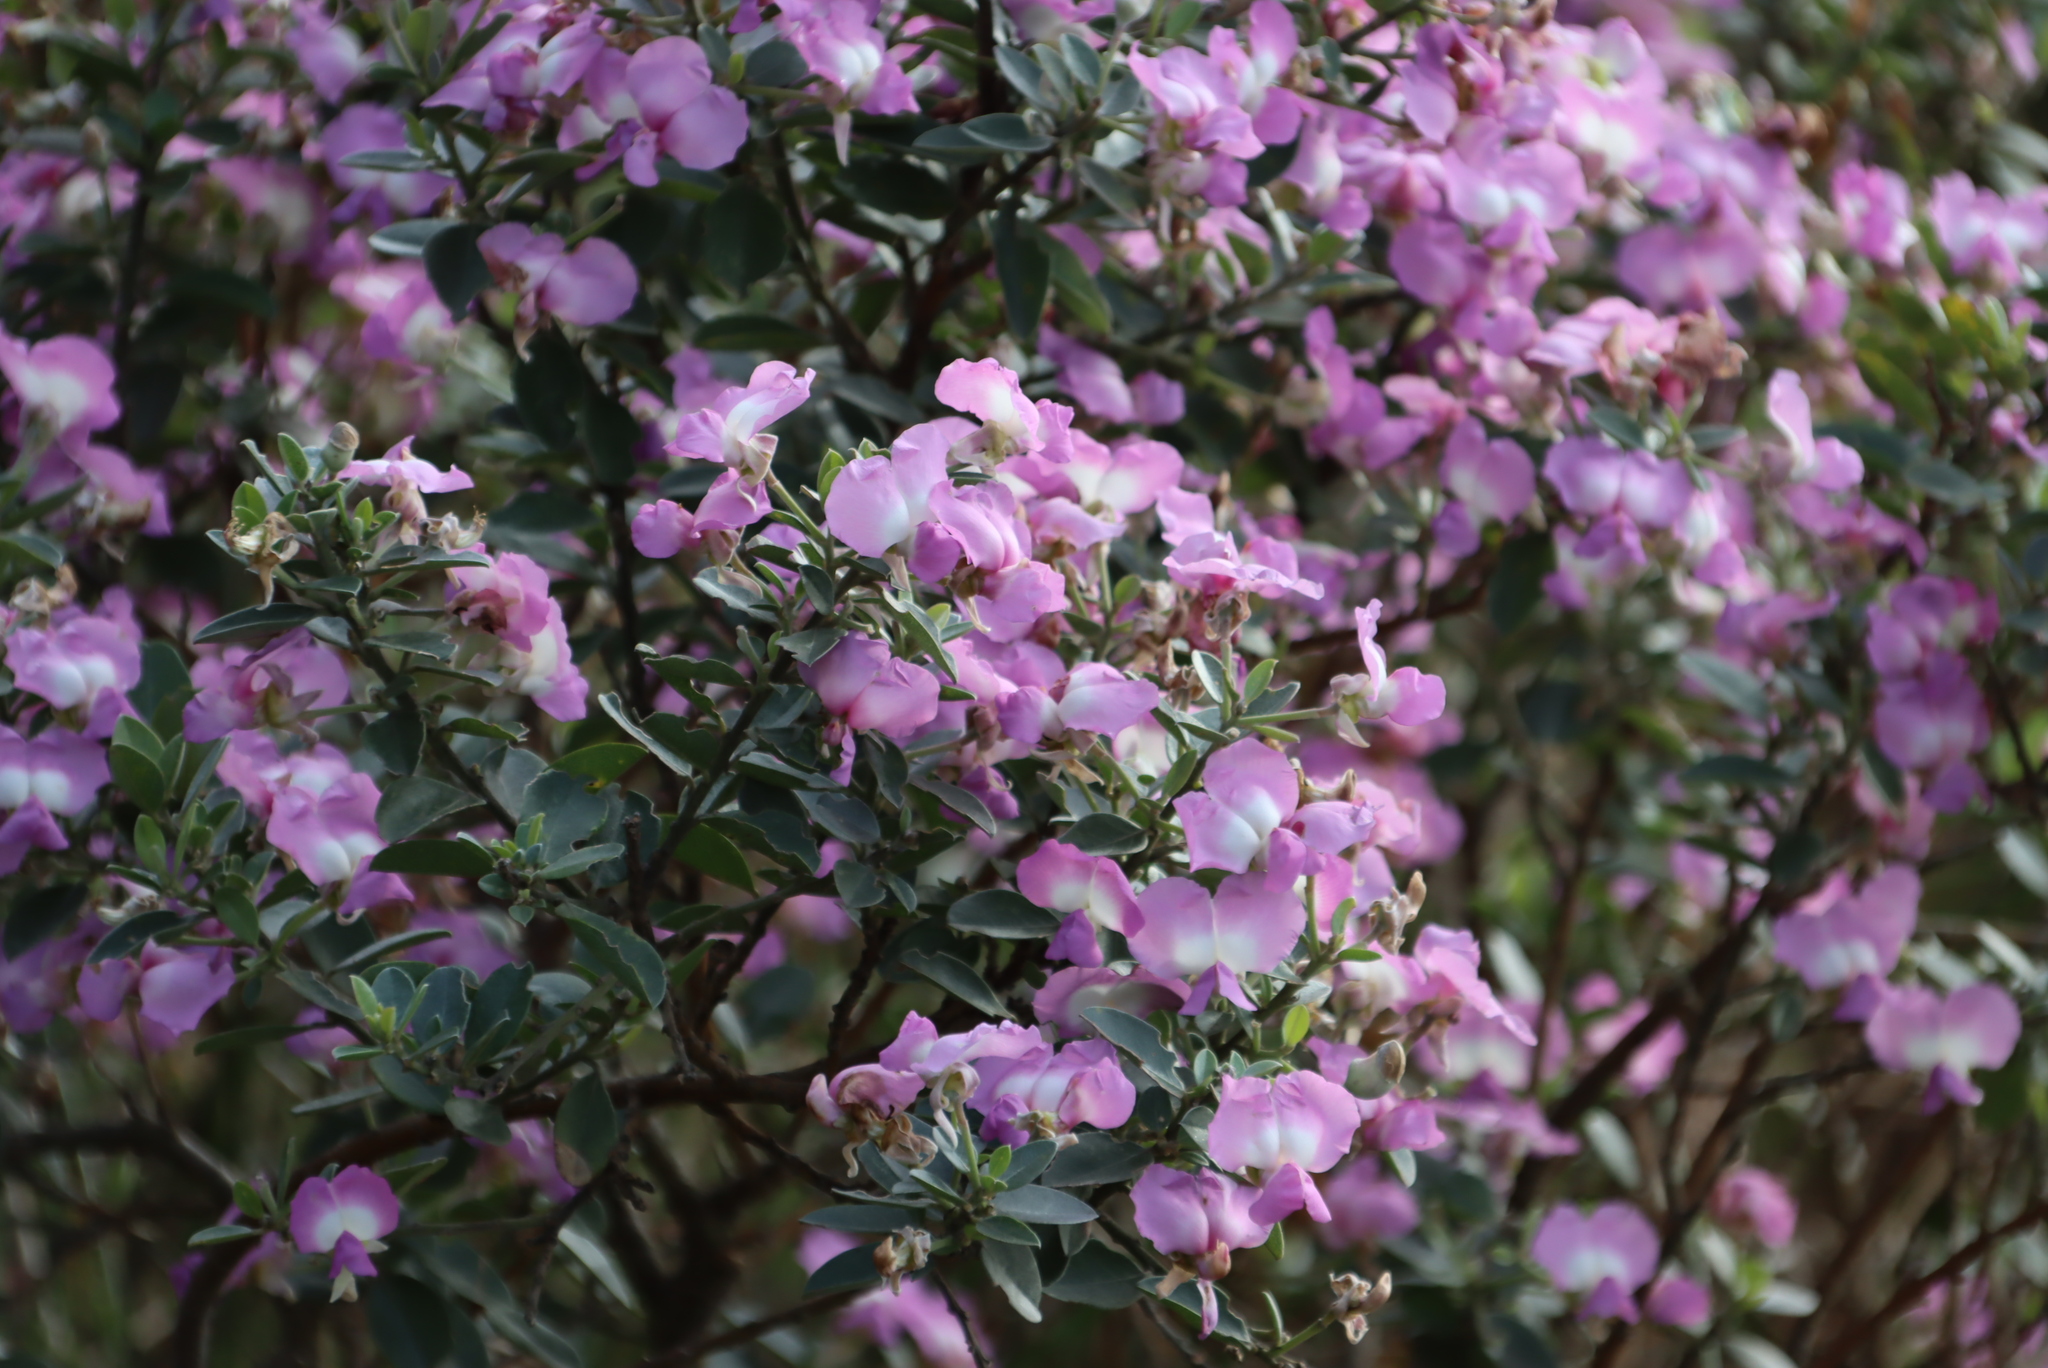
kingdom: Plantae
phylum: Tracheophyta
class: Magnoliopsida
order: Fabales
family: Fabaceae
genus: Podalyria
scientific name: Podalyria calyptrata
